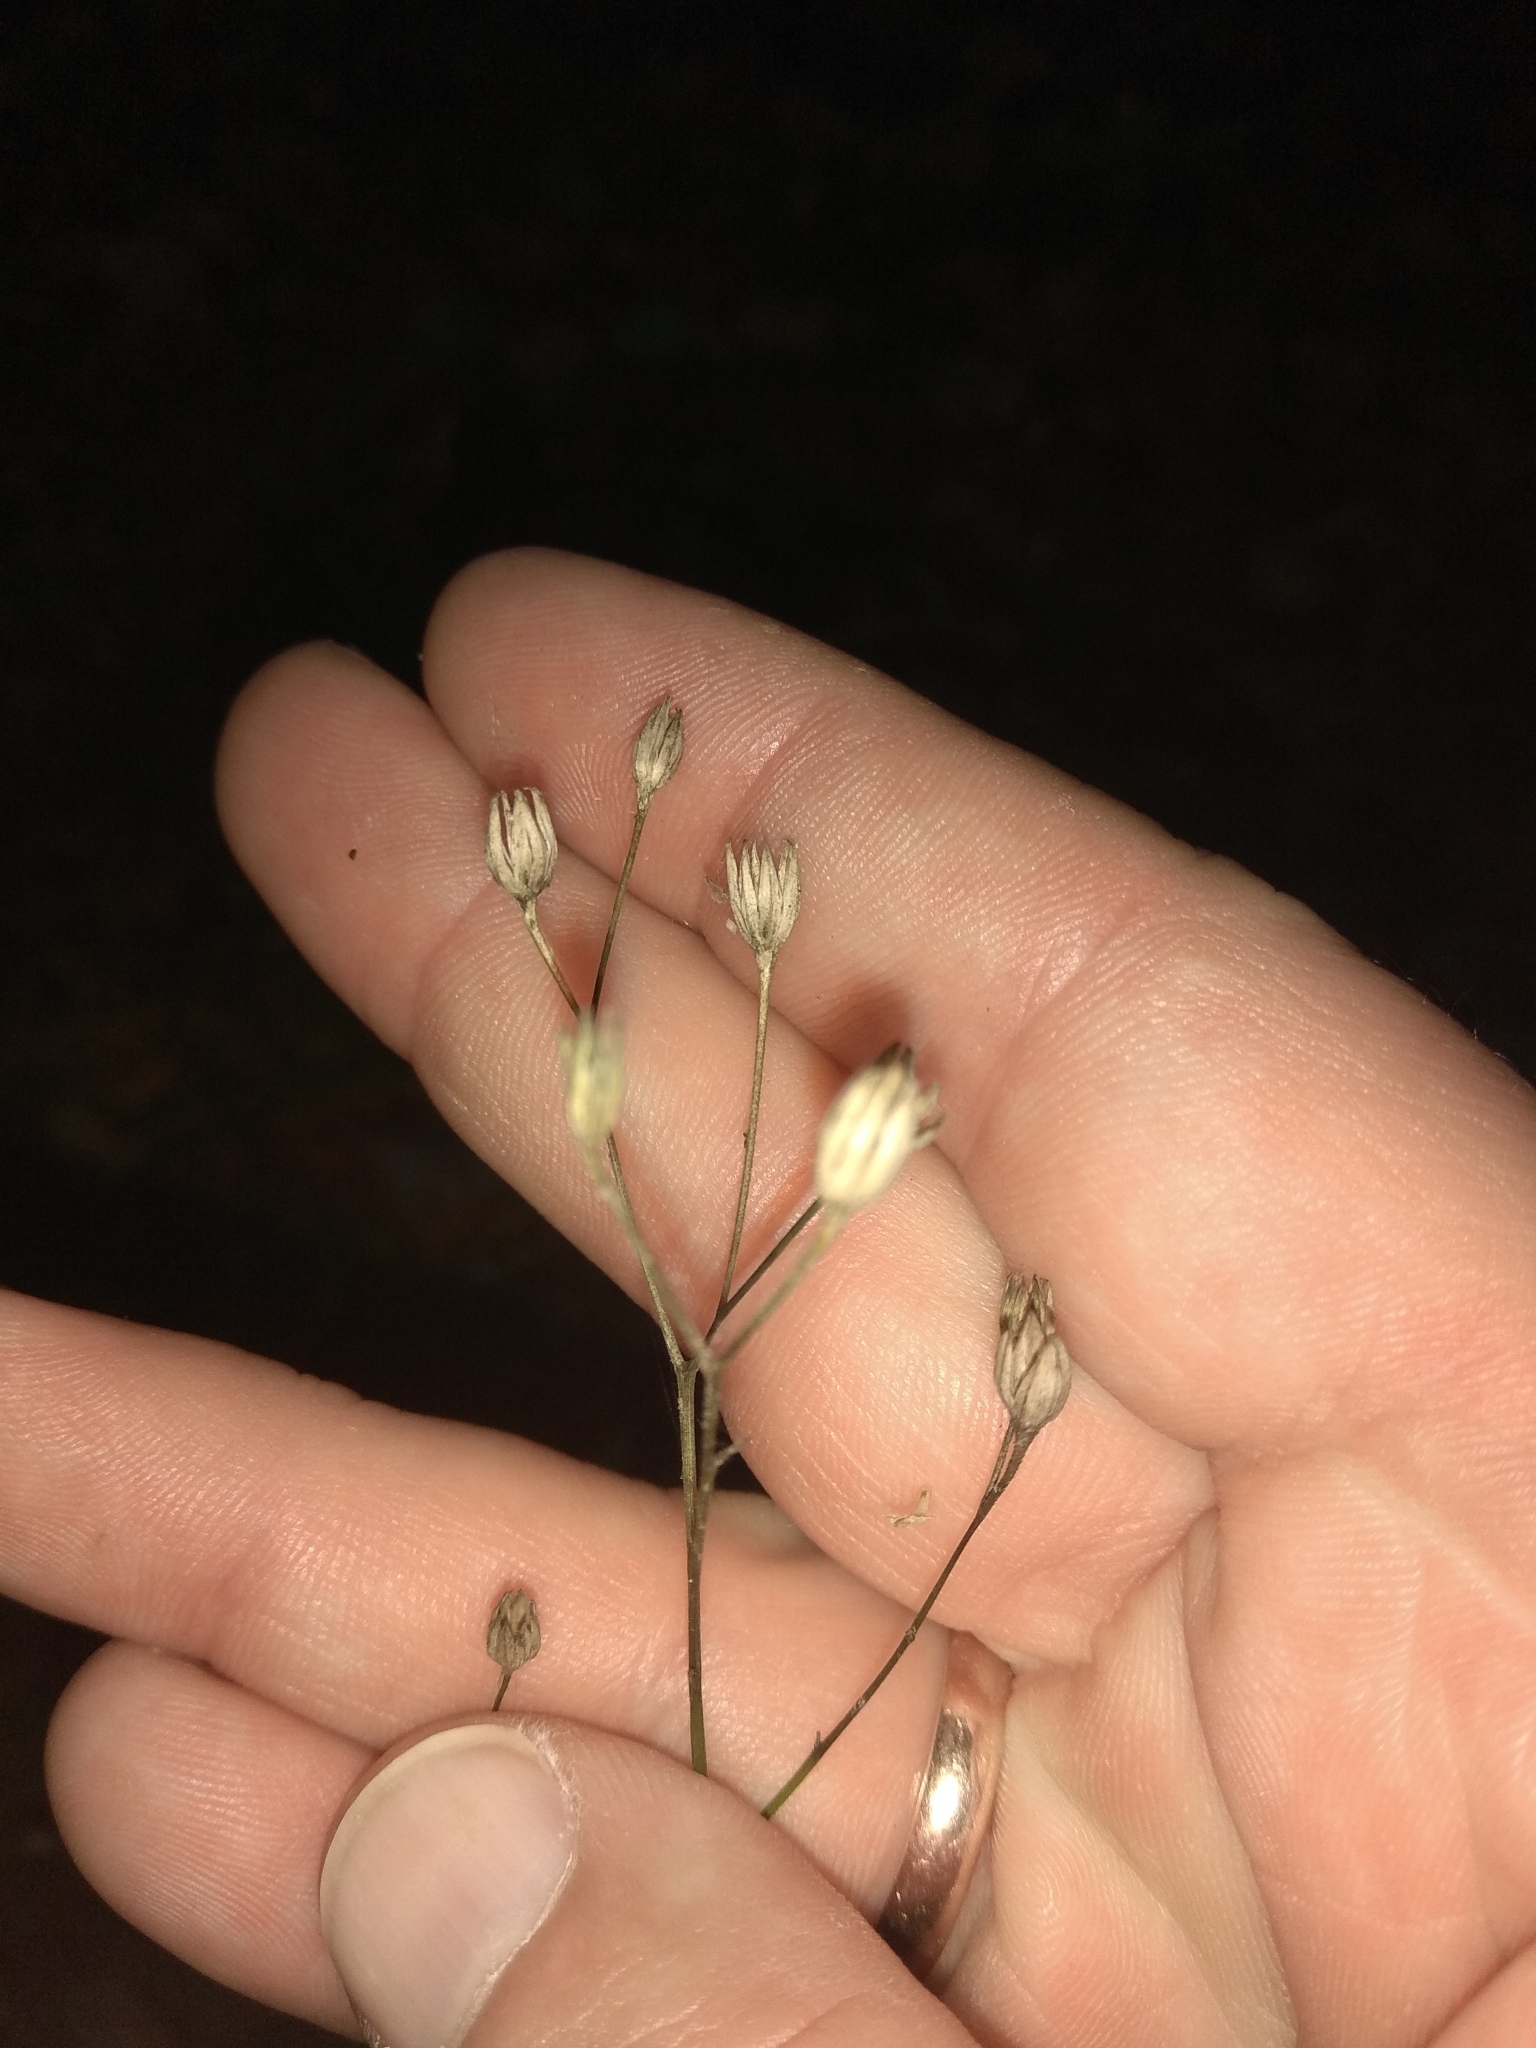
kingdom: Plantae
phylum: Tracheophyta
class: Magnoliopsida
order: Asterales
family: Asteraceae
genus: Lapsana
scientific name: Lapsana communis
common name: Nipplewort
